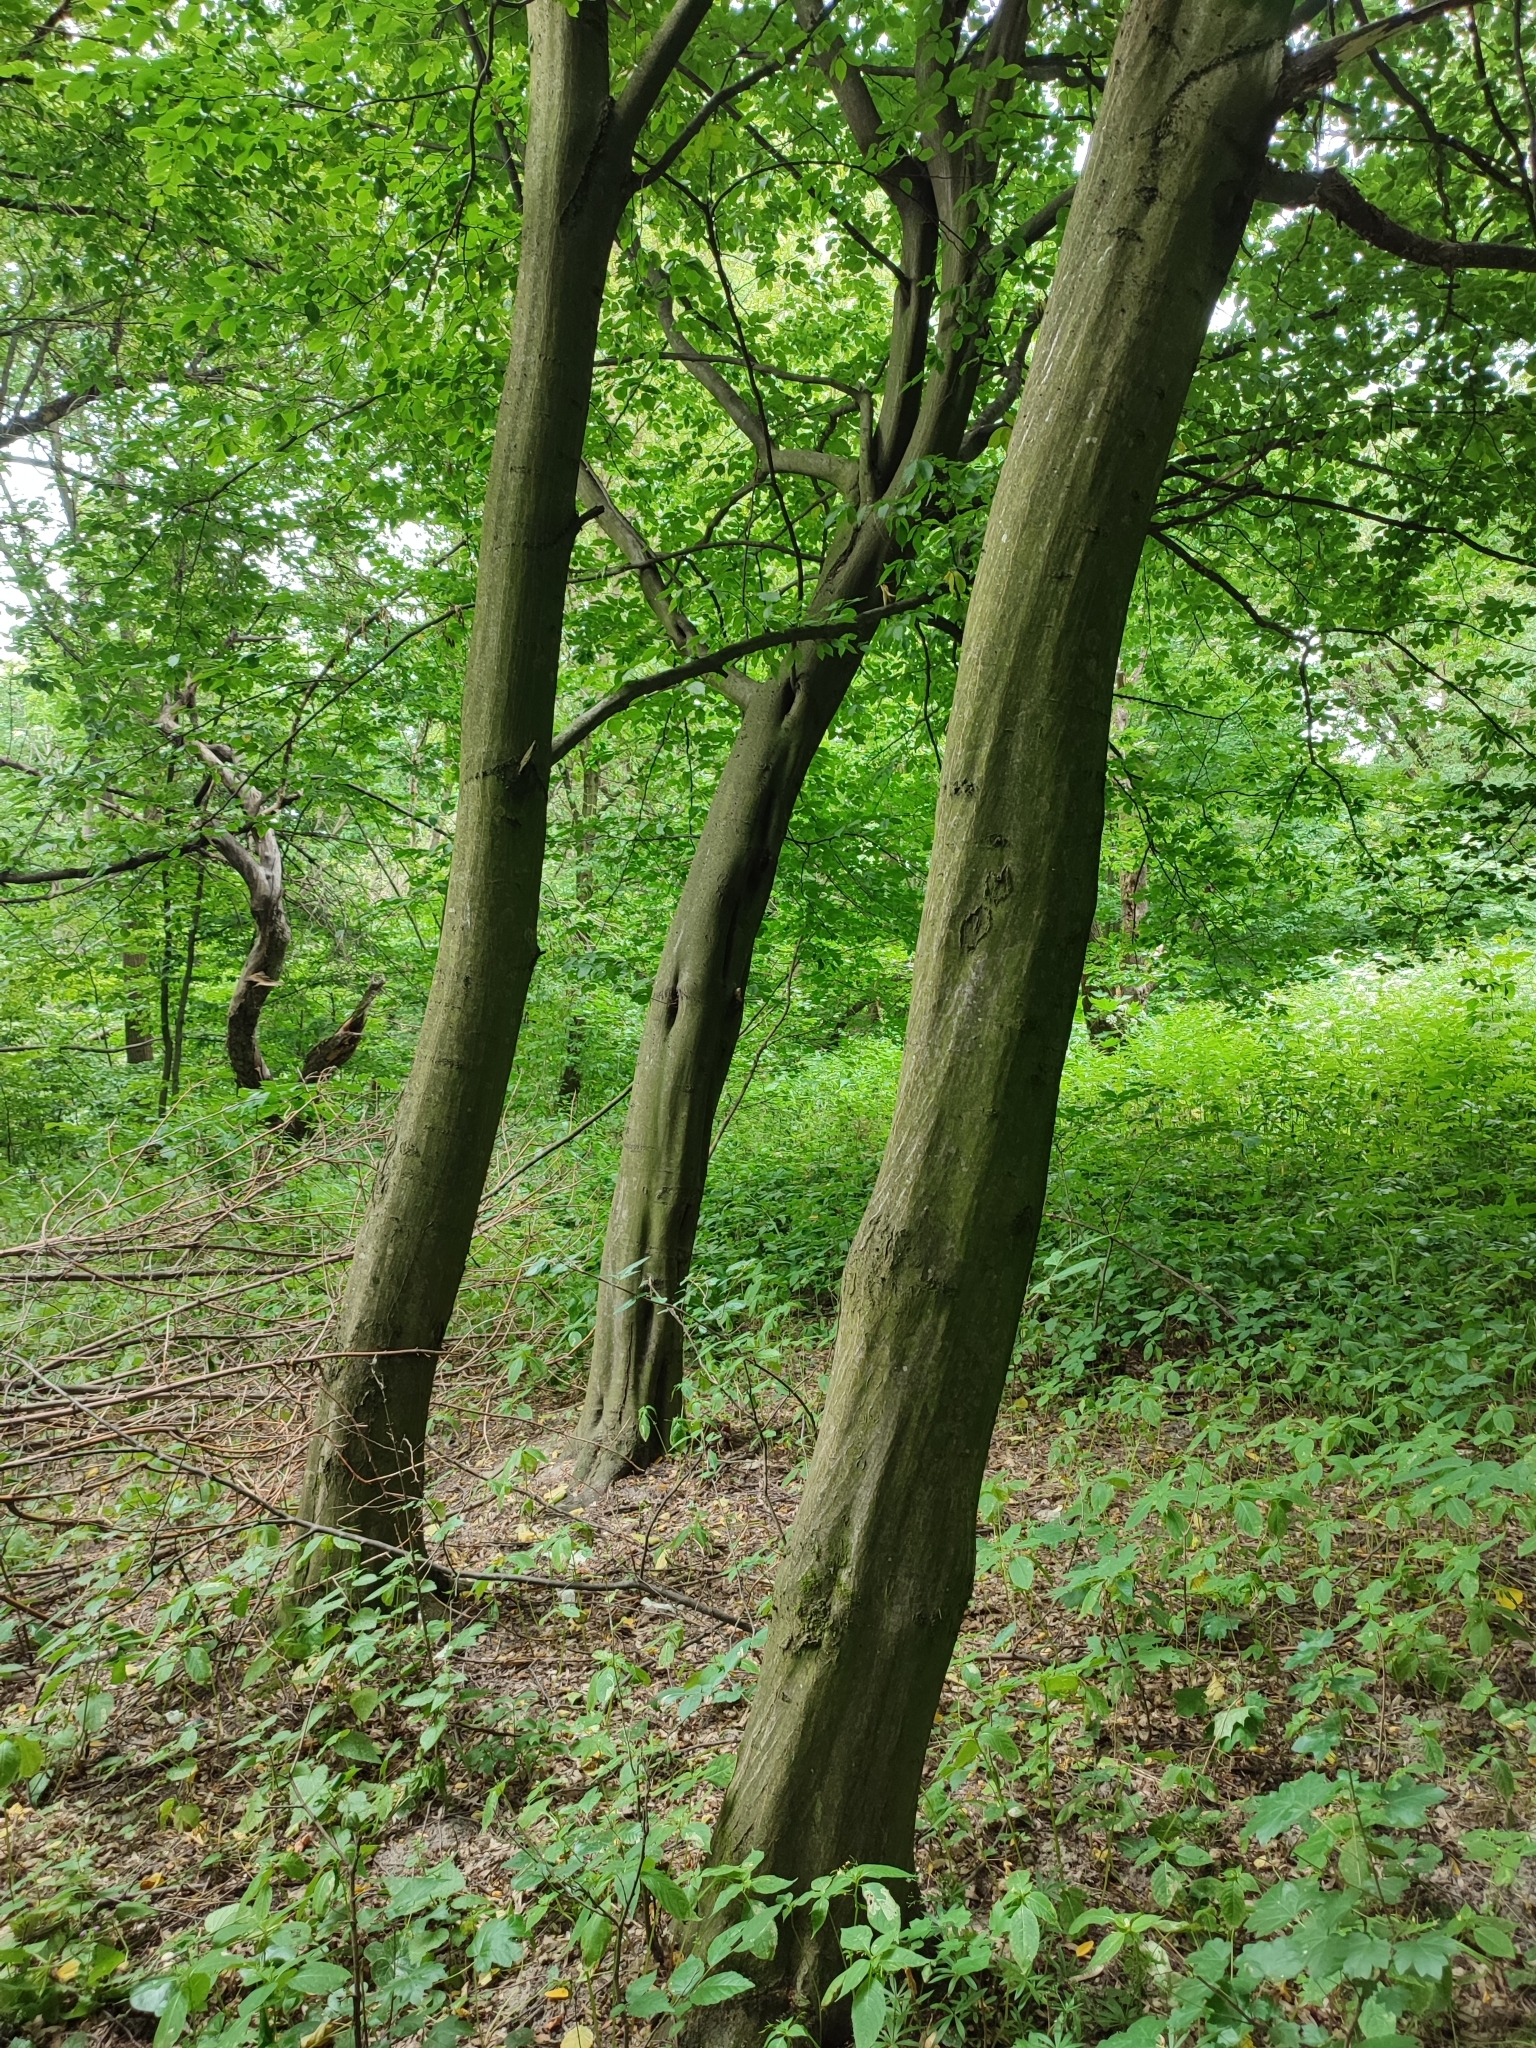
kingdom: Plantae
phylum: Tracheophyta
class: Magnoliopsida
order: Fagales
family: Betulaceae
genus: Carpinus
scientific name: Carpinus betulus
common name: Hornbeam
